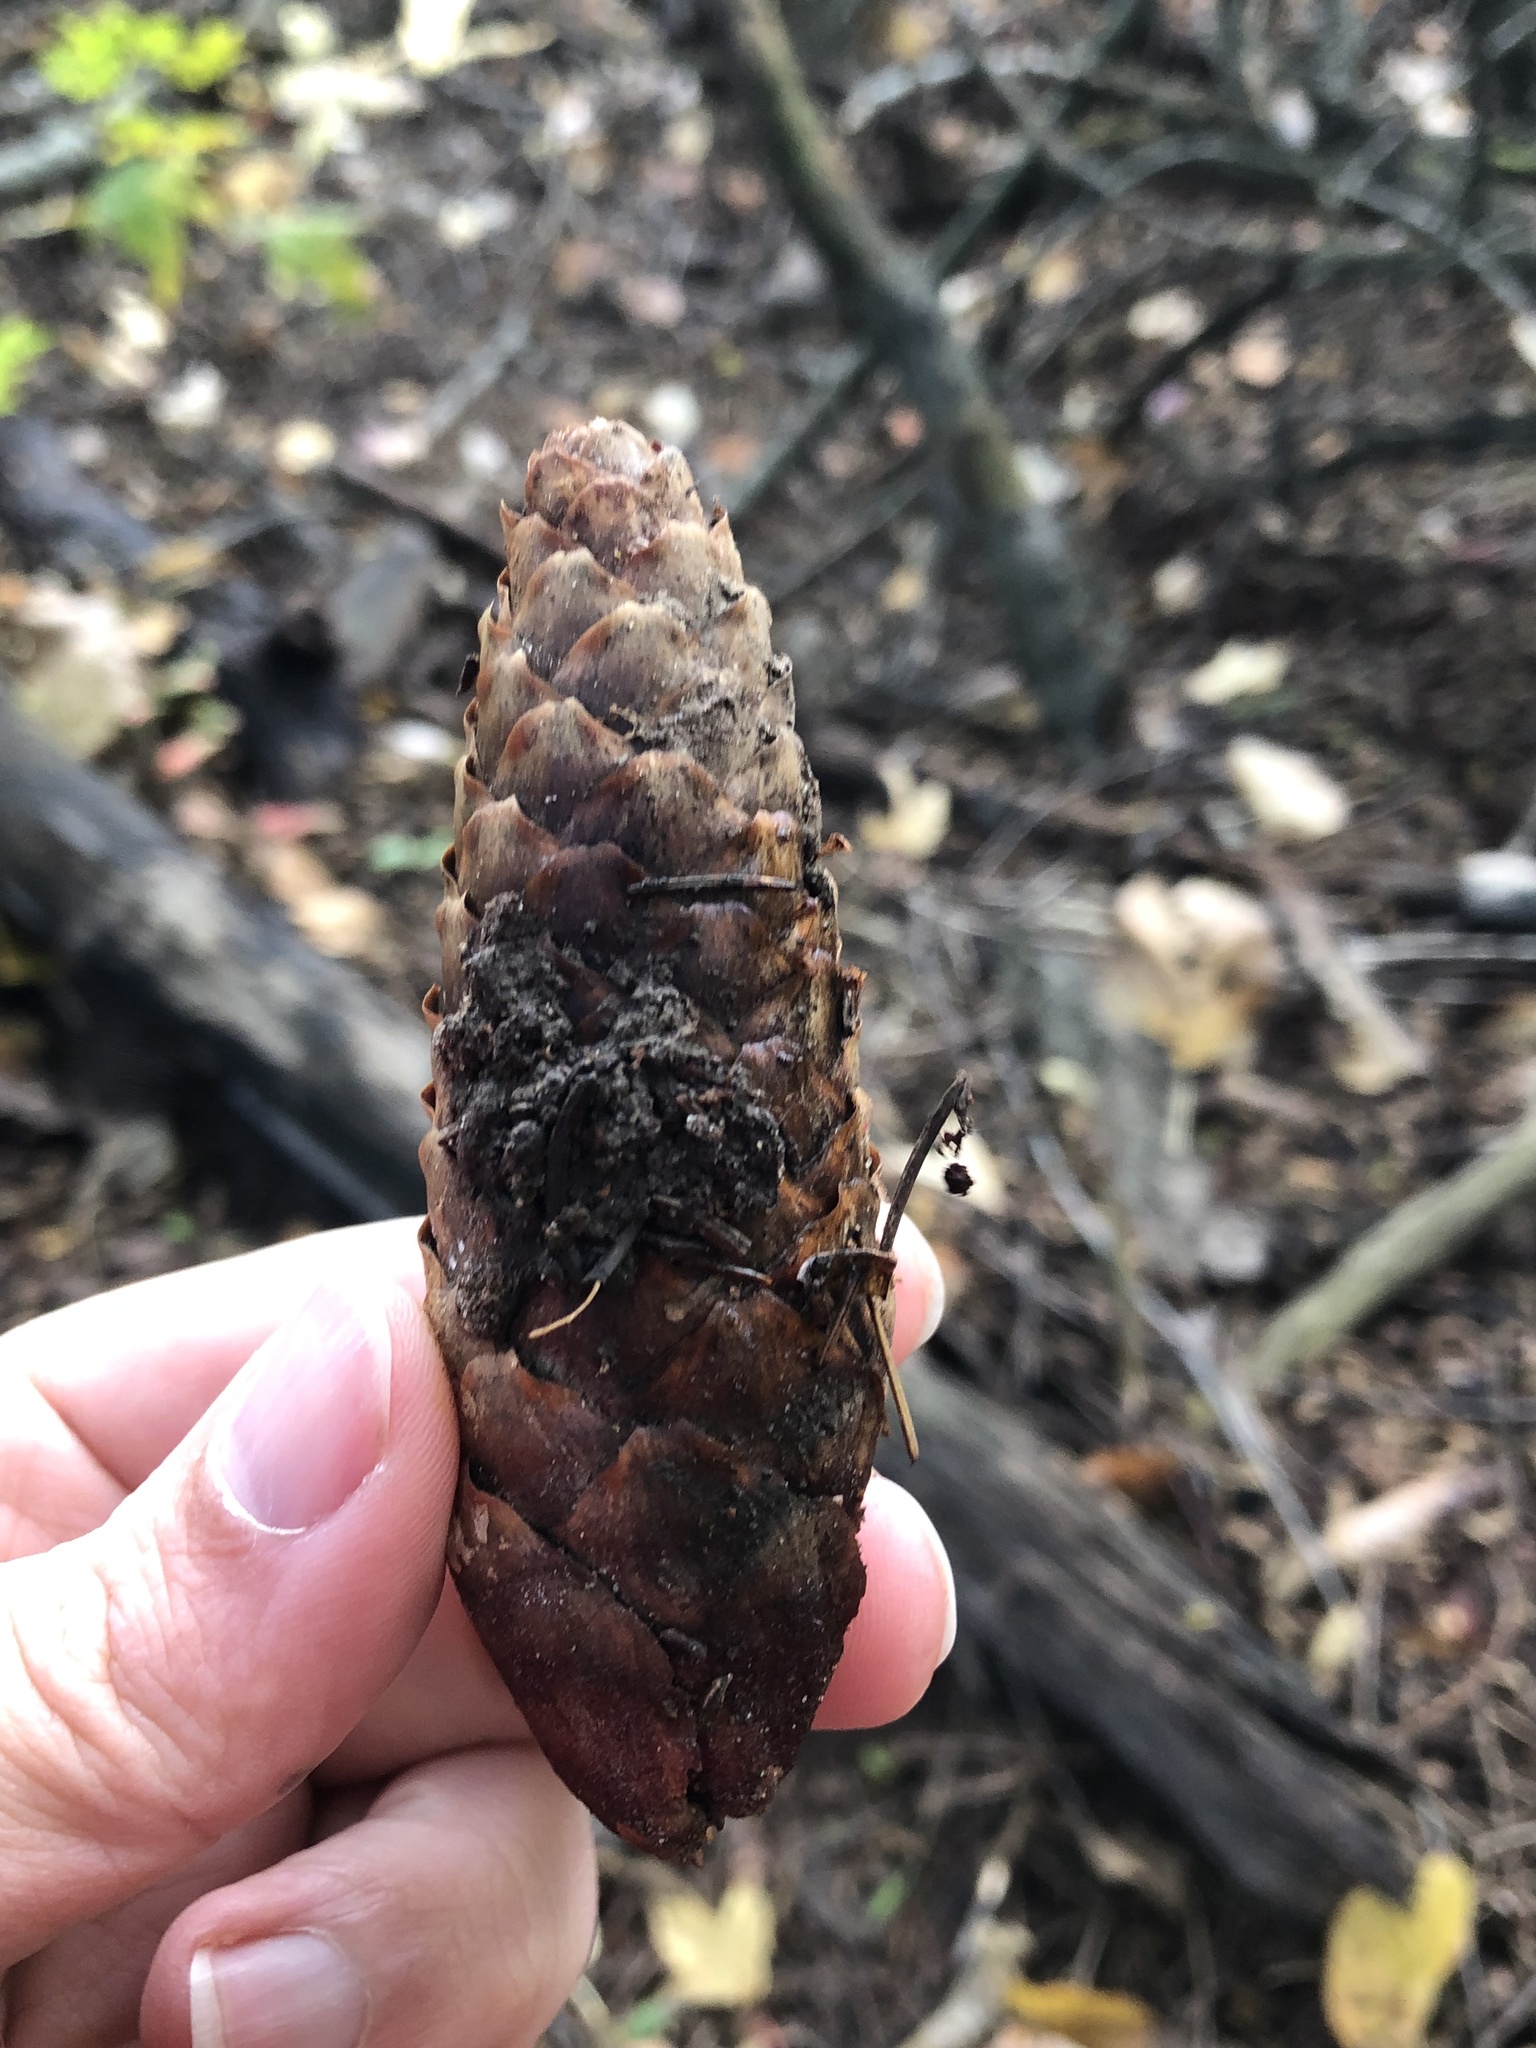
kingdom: Plantae
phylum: Tracheophyta
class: Pinopsida
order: Pinales
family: Pinaceae
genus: Picea
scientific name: Picea abies
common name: Norway spruce
